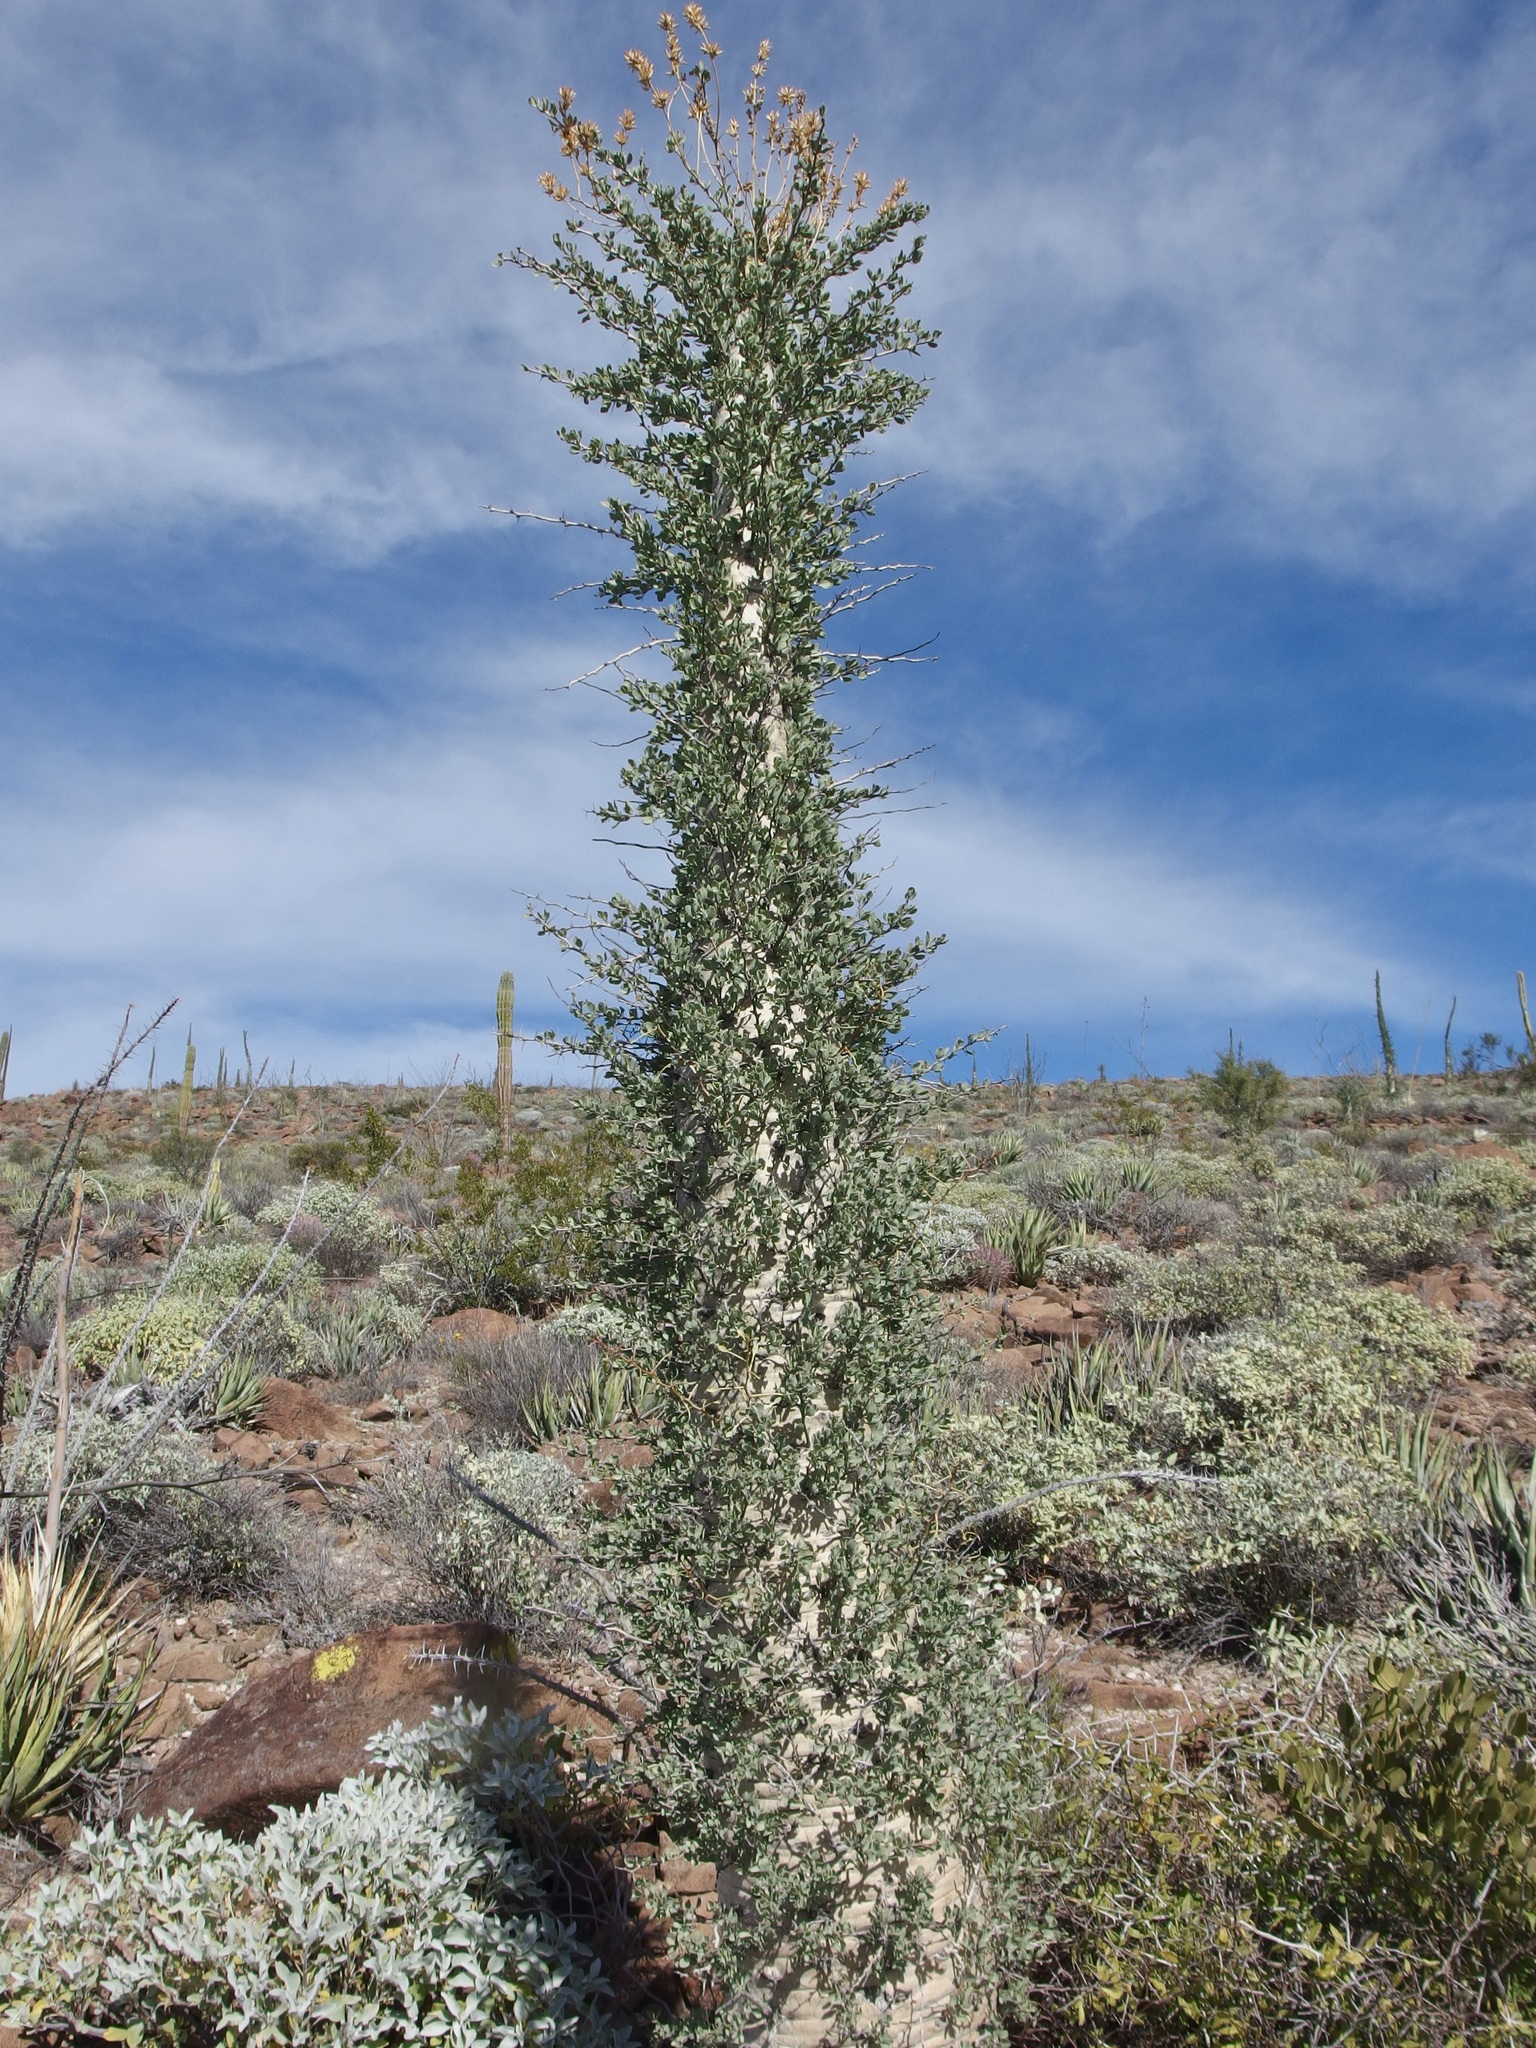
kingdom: Plantae
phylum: Tracheophyta
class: Magnoliopsida
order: Ericales
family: Fouquieriaceae
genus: Fouquieria
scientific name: Fouquieria columnaris
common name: Boojumtree
